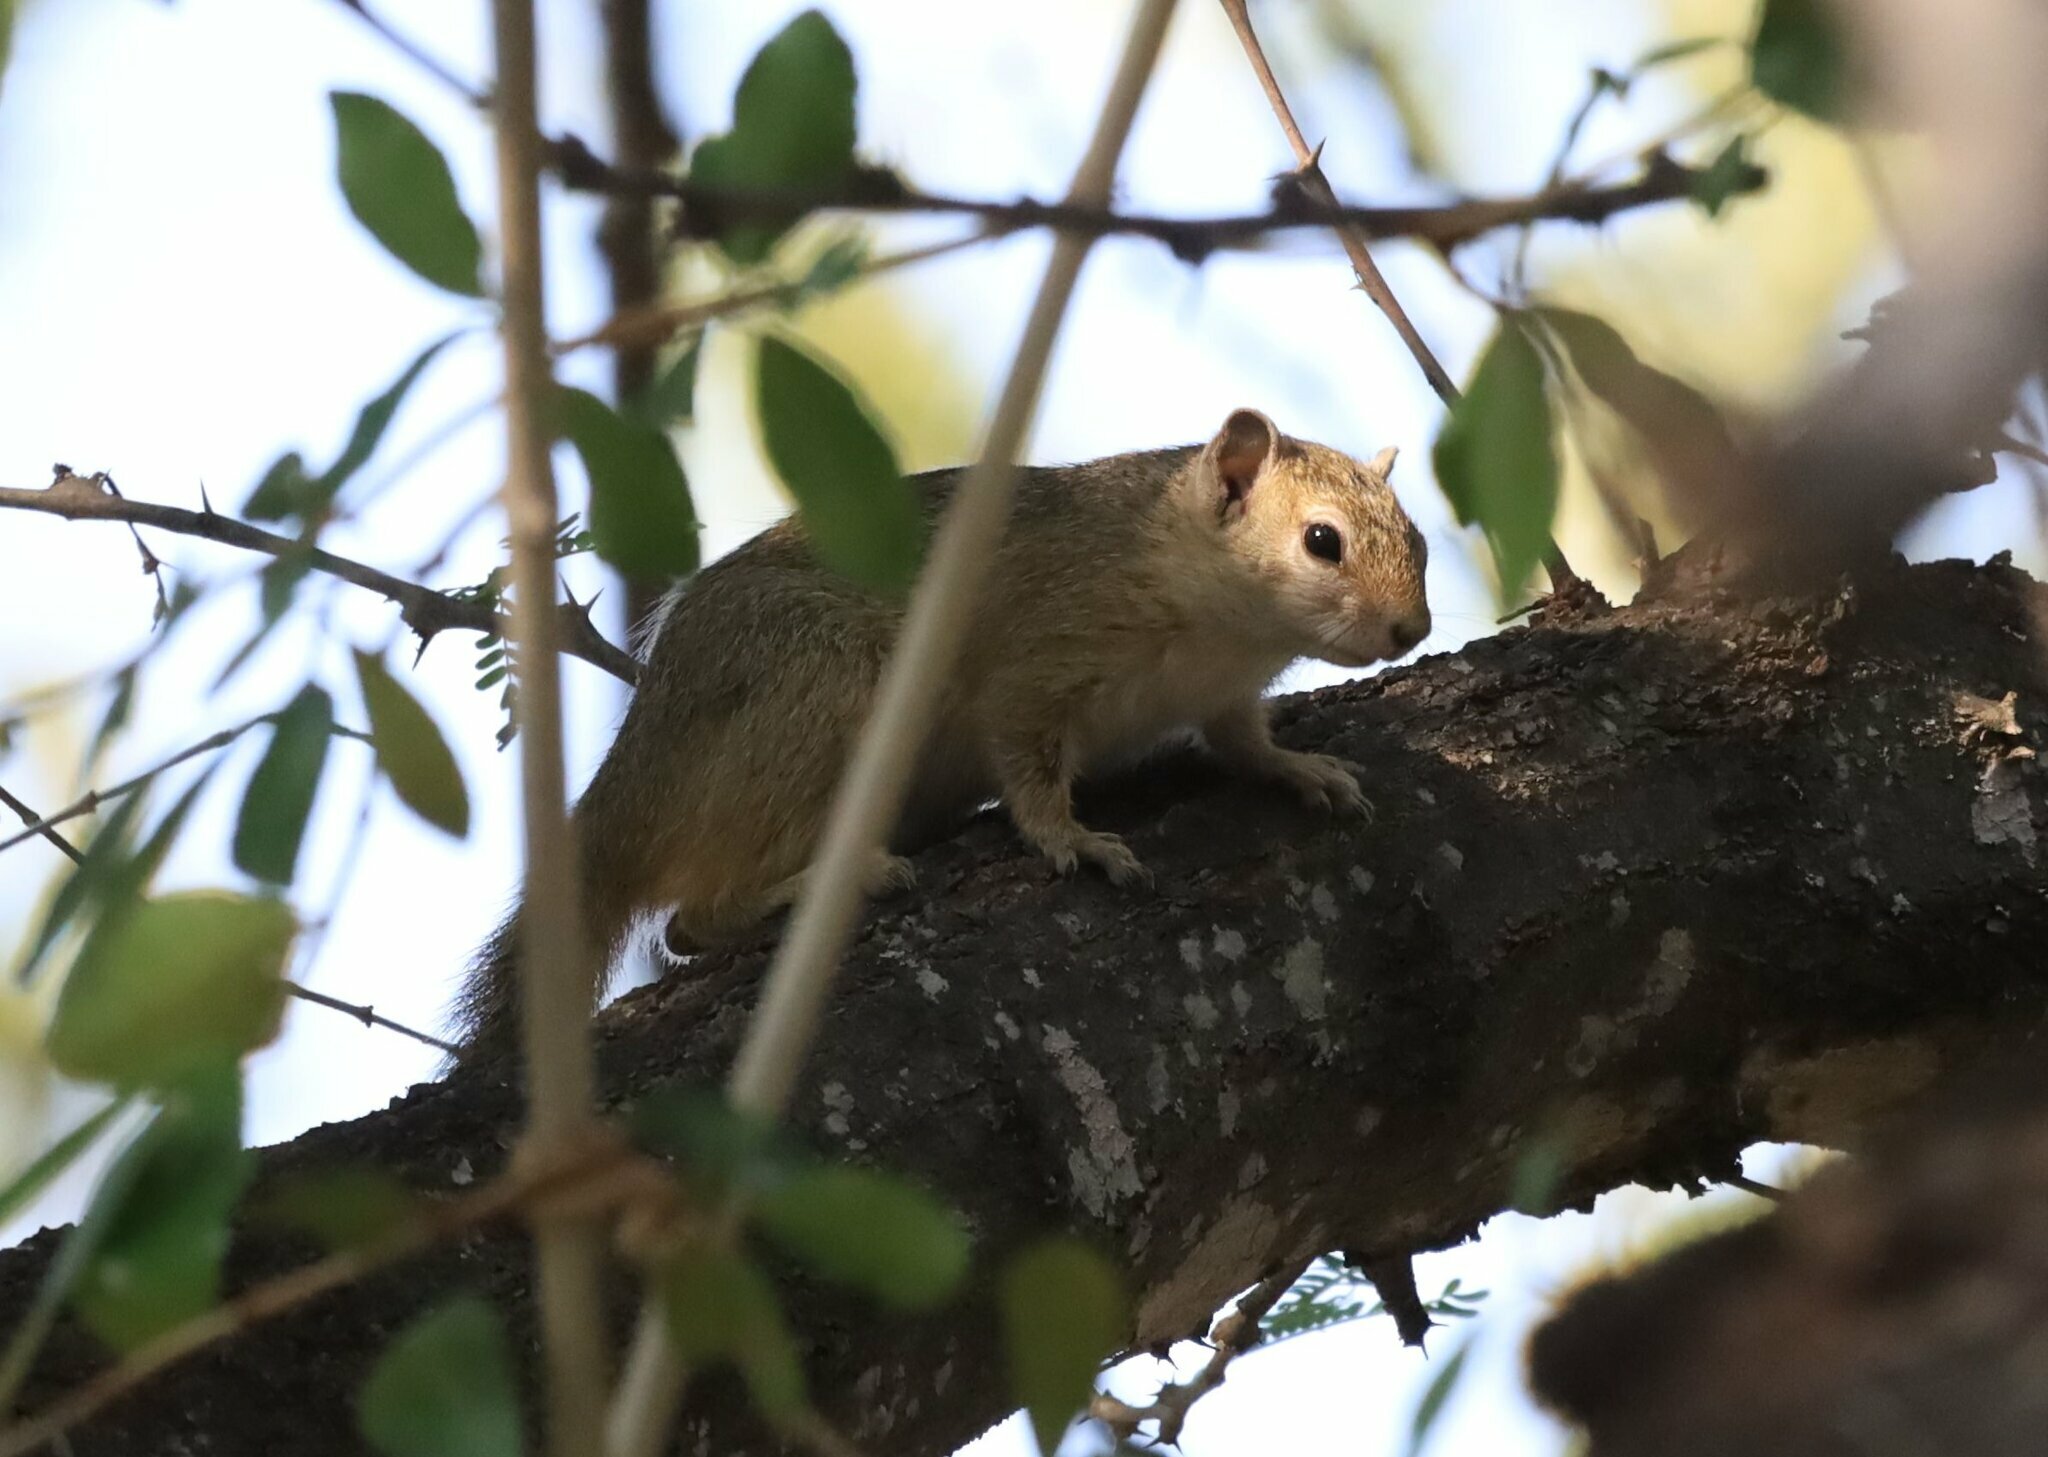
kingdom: Animalia
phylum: Chordata
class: Mammalia
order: Rodentia
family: Sciuridae
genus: Paraxerus
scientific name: Paraxerus cepapi
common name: Smith's bush squirrel
